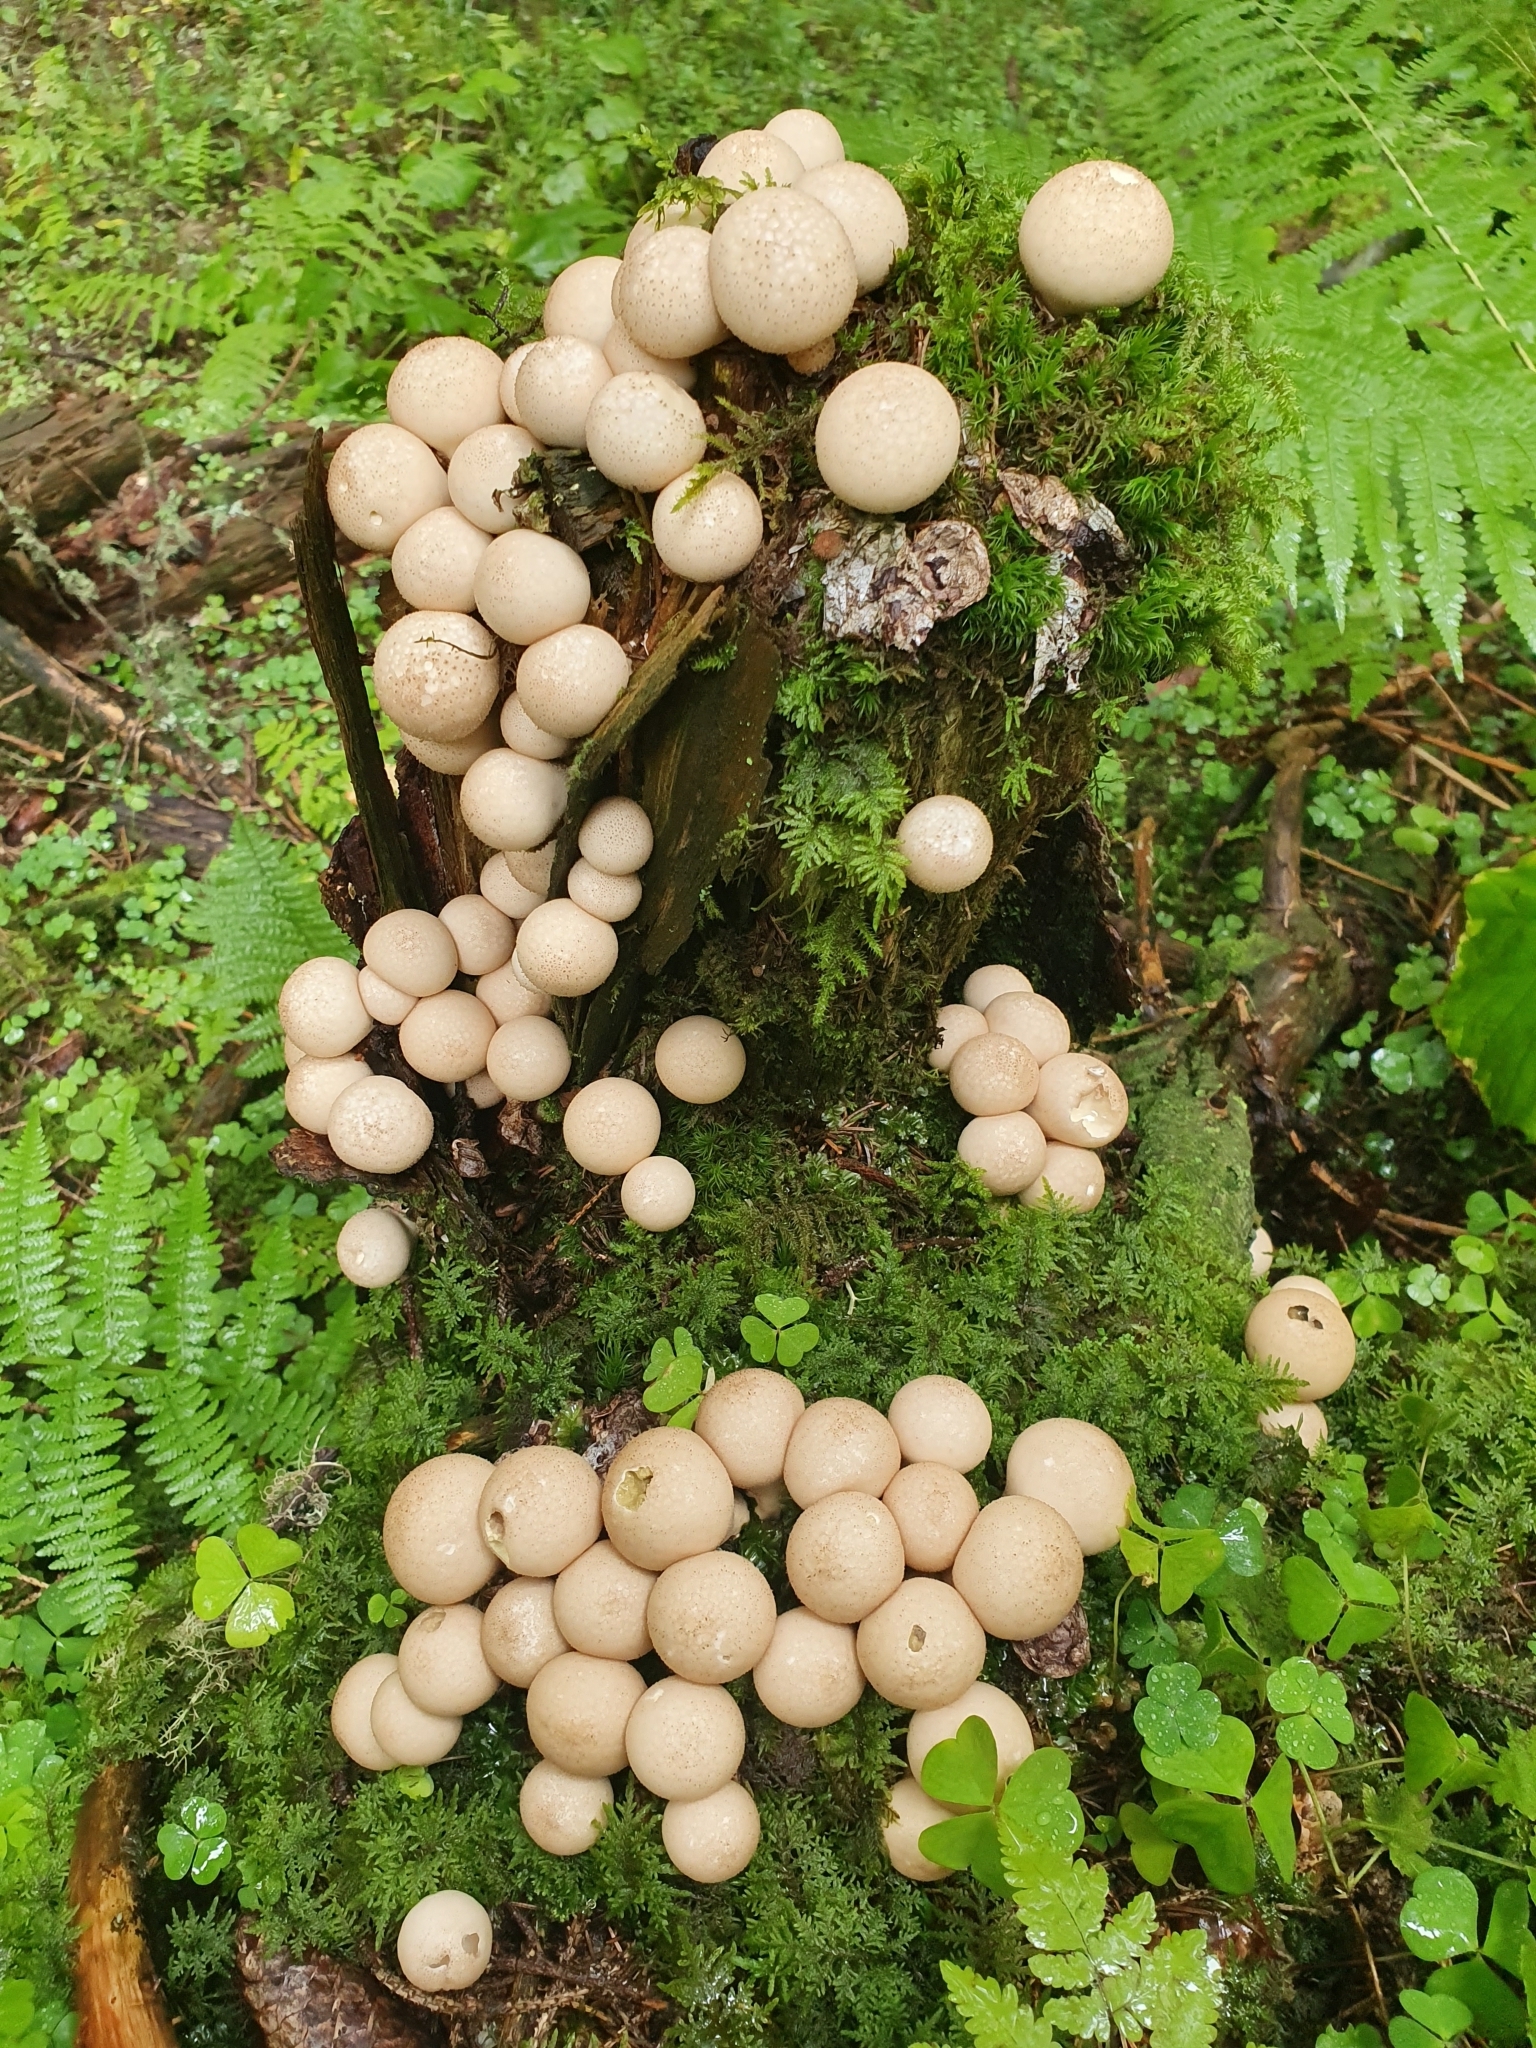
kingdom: Fungi
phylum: Basidiomycota
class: Agaricomycetes
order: Agaricales
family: Lycoperdaceae
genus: Apioperdon
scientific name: Apioperdon pyriforme
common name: Pear-shaped puffball
